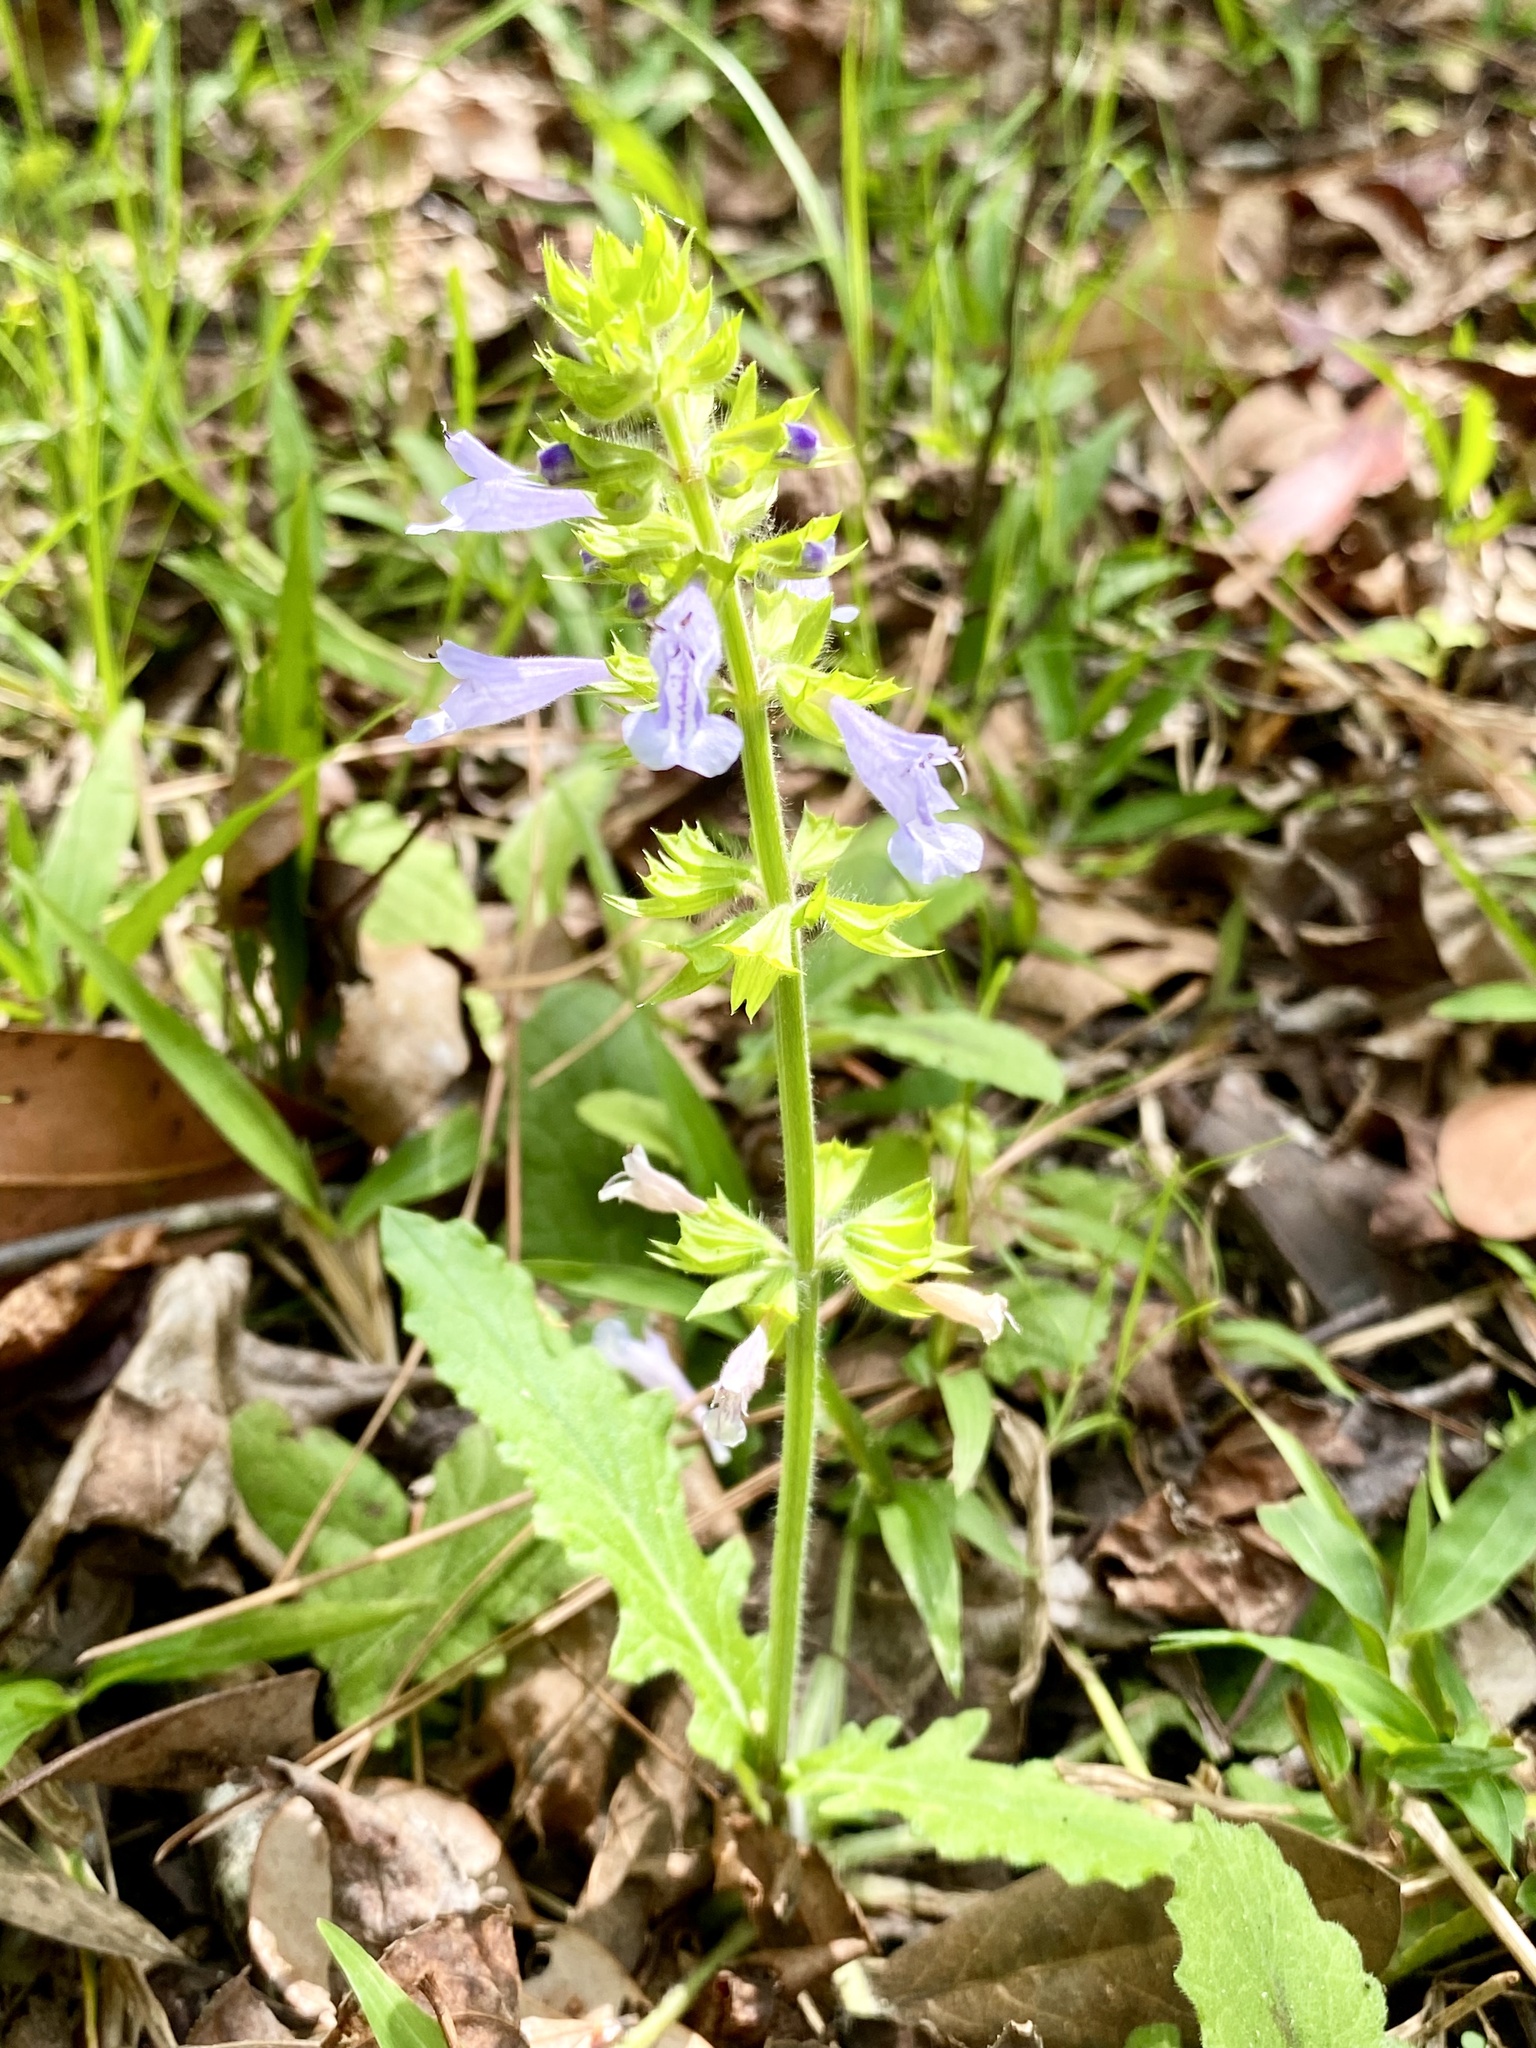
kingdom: Plantae
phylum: Tracheophyta
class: Magnoliopsida
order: Lamiales
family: Lamiaceae
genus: Salvia
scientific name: Salvia lyrata
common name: Cancerweed
